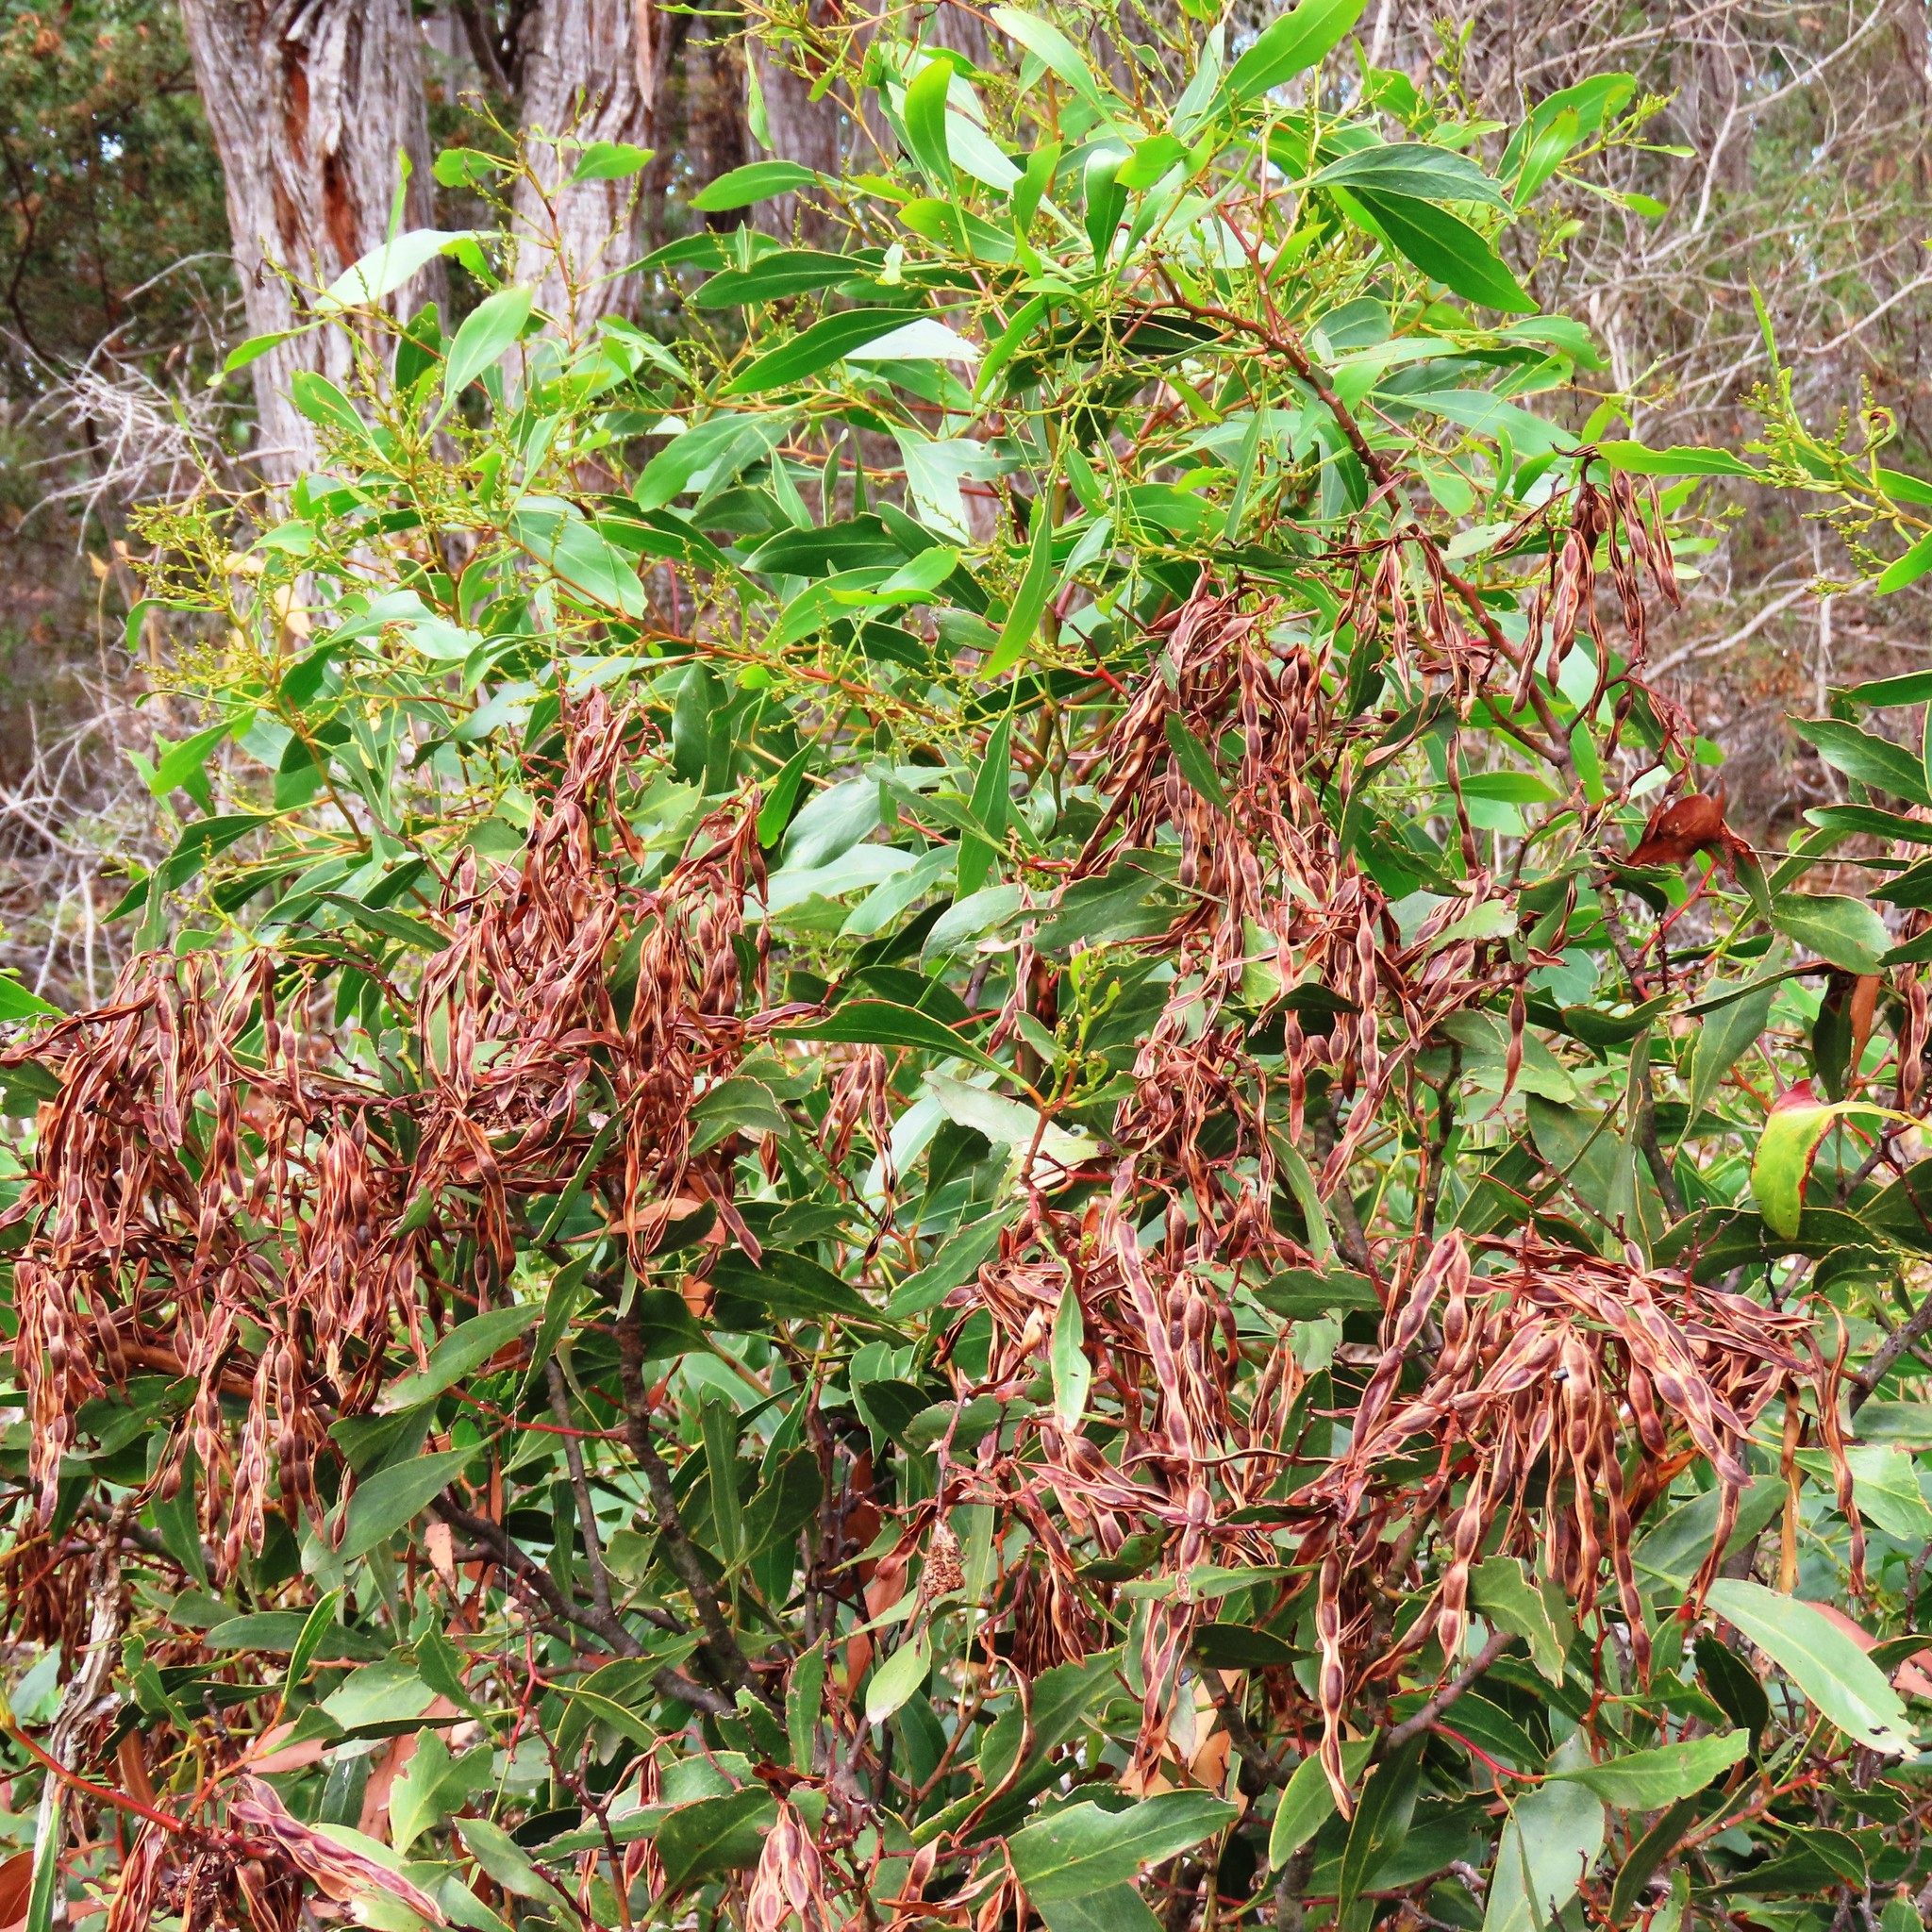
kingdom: Plantae
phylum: Tracheophyta
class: Magnoliopsida
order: Fabales
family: Fabaceae
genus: Acacia
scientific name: Acacia pycnantha
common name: Golden wattle
